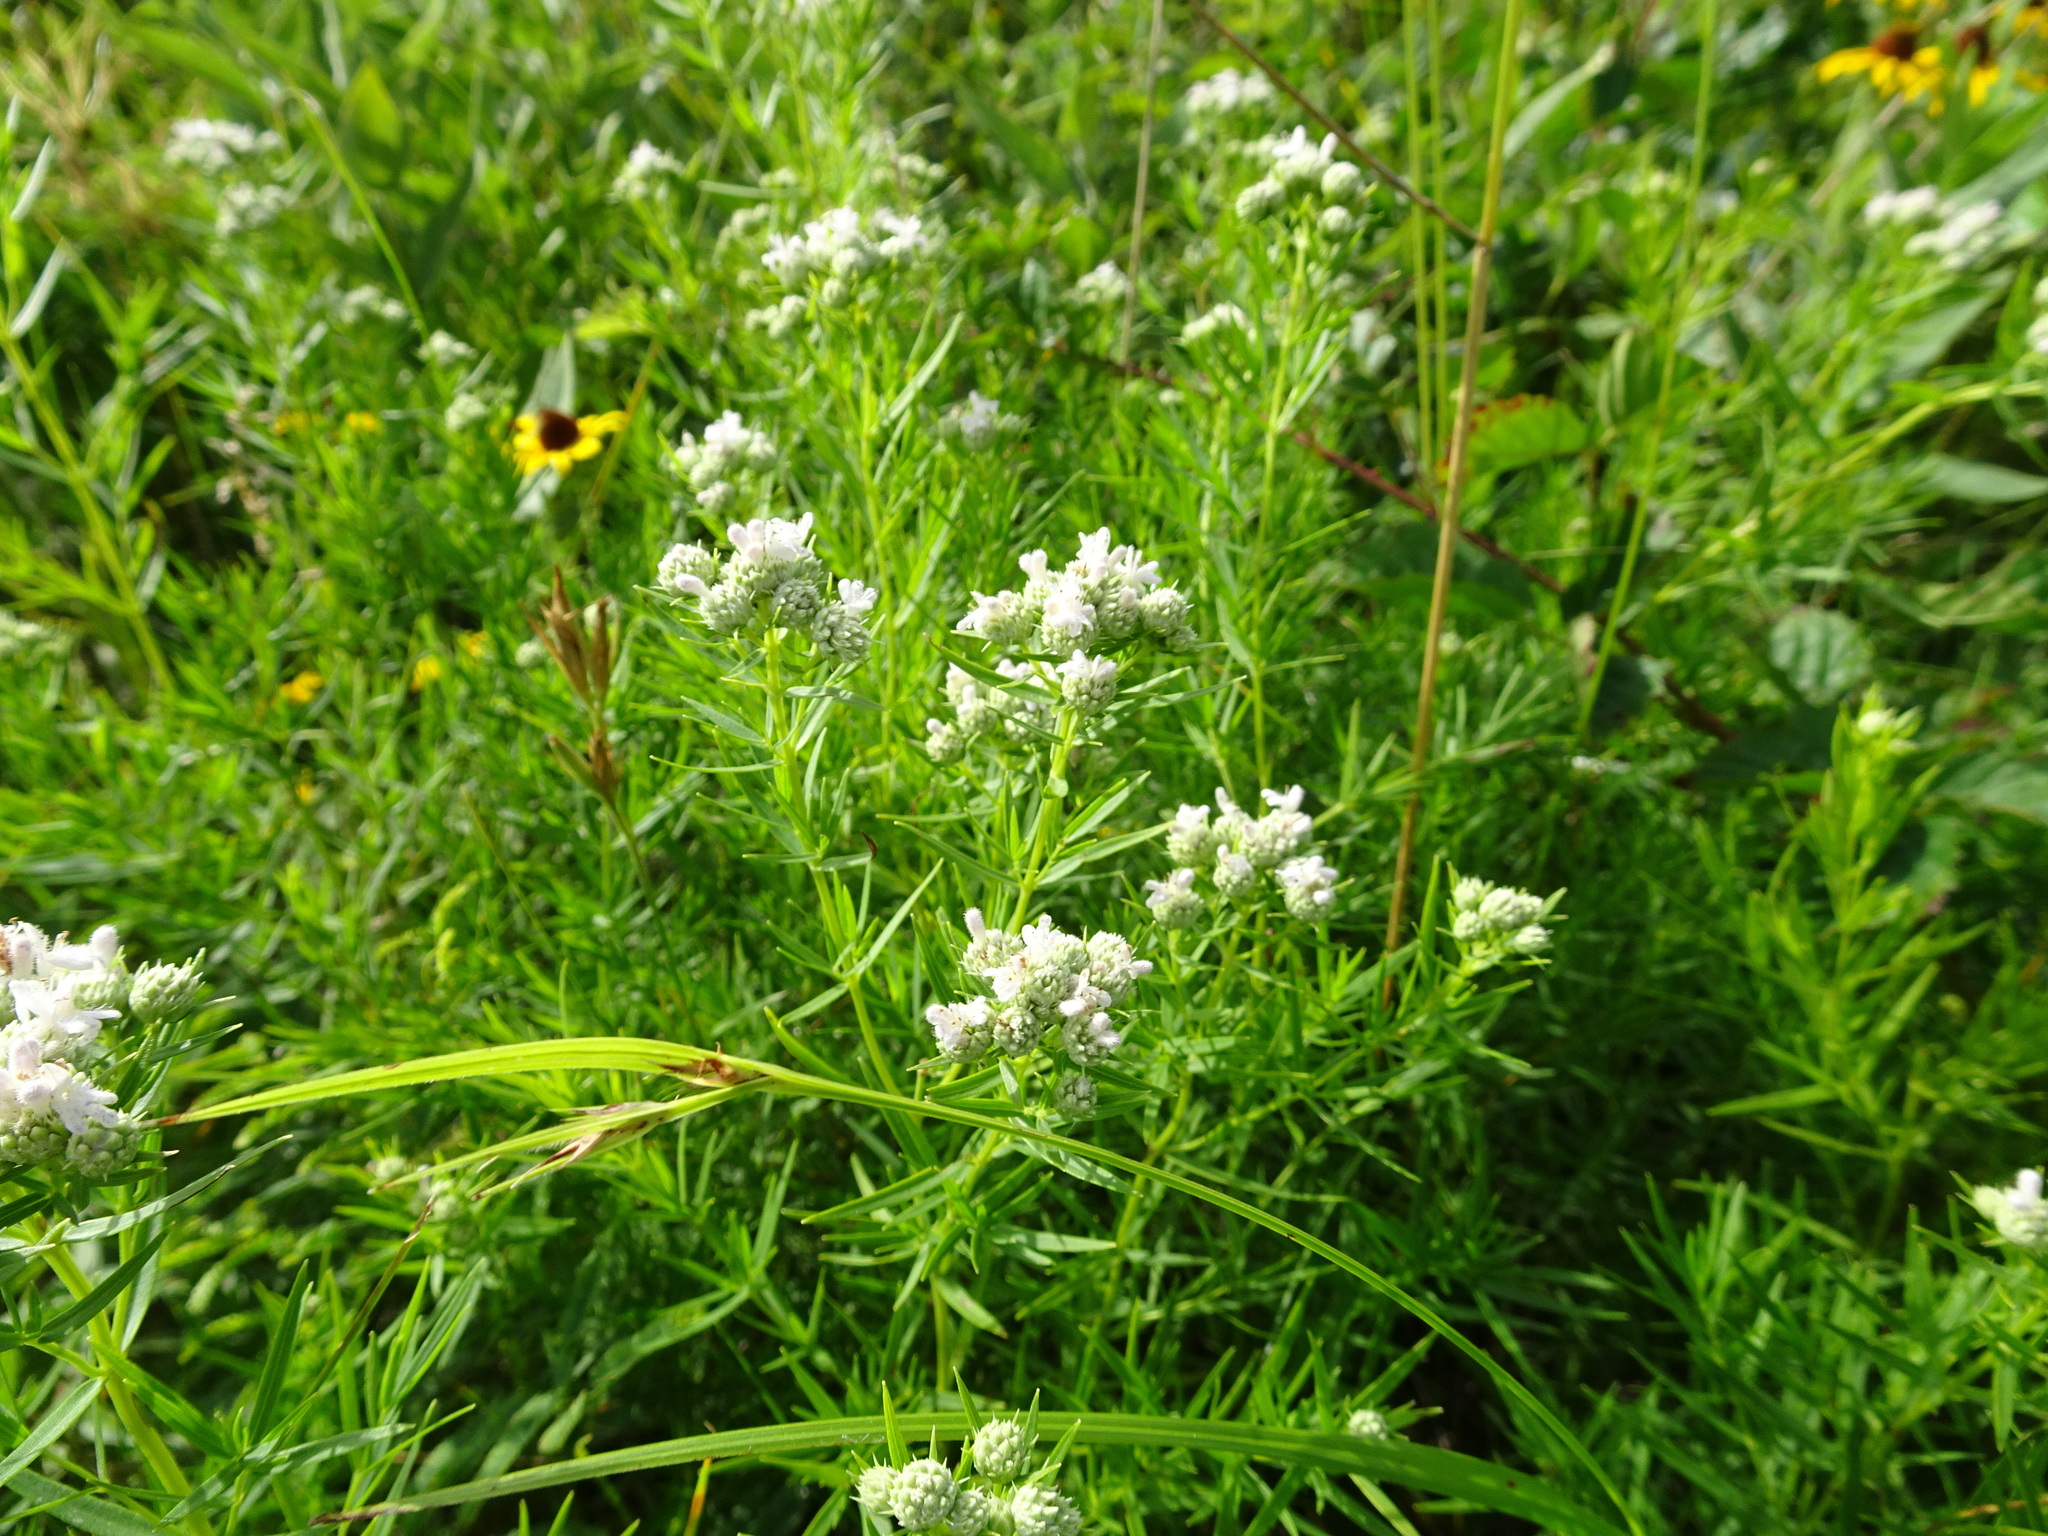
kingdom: Plantae
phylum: Tracheophyta
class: Magnoliopsida
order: Lamiales
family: Lamiaceae
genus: Pycnanthemum
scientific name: Pycnanthemum tenuifolium
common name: Narrow-leaf mountain-mint
